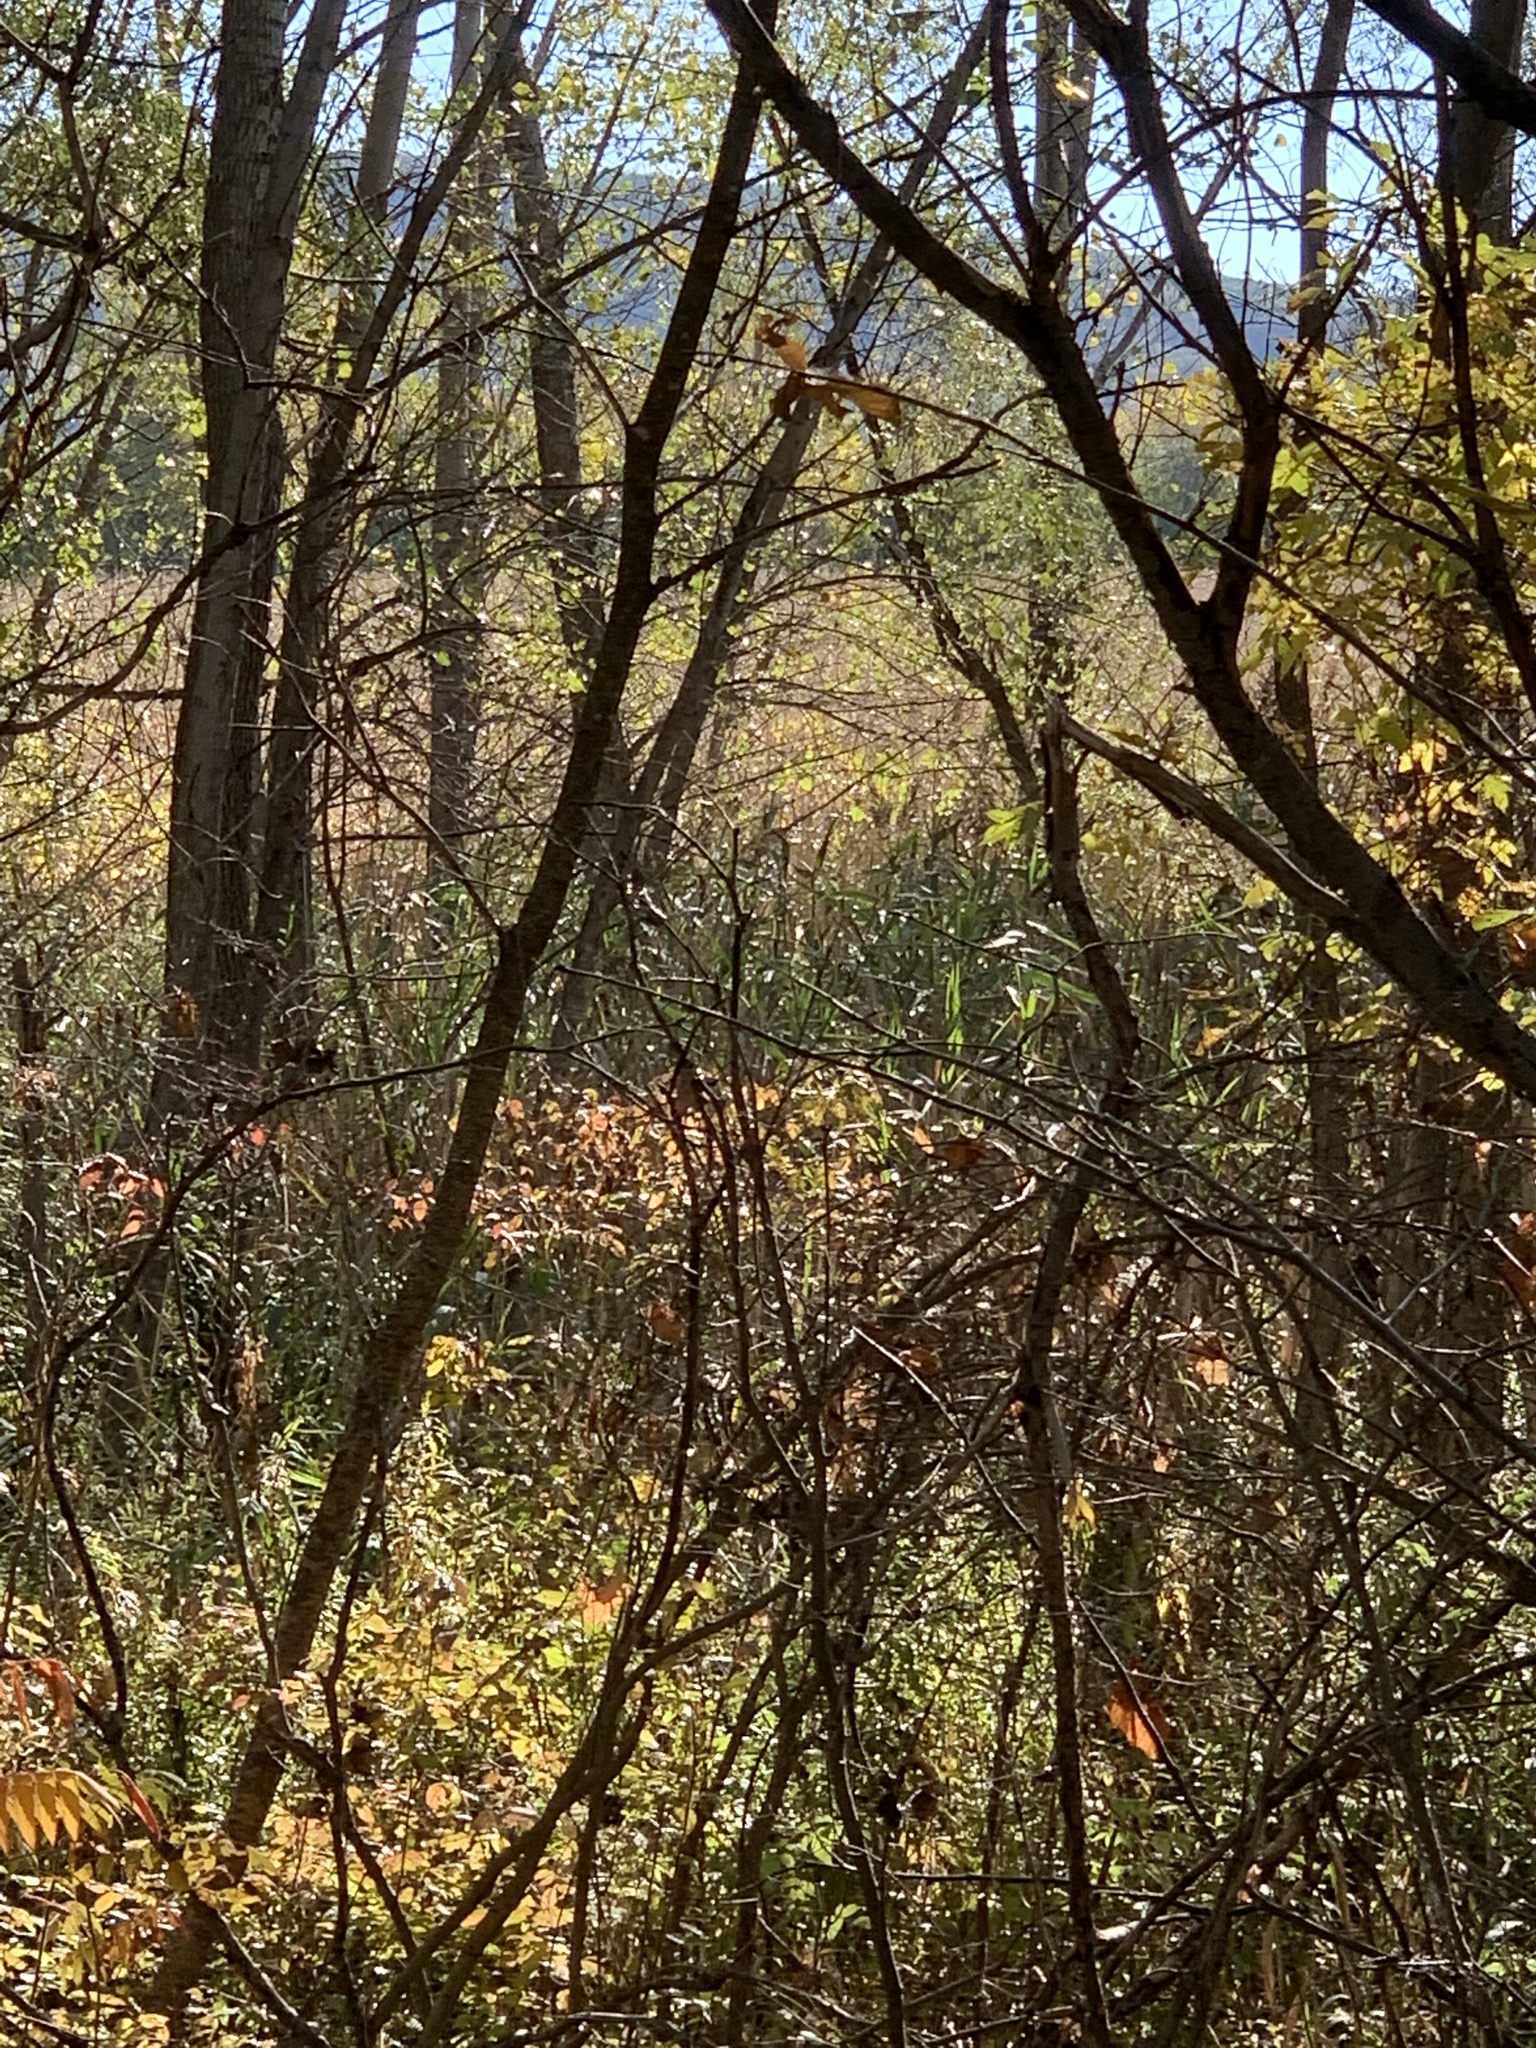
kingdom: Plantae
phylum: Tracheophyta
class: Liliopsida
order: Poales
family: Poaceae
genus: Phragmites
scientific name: Phragmites australis
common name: Common reed
